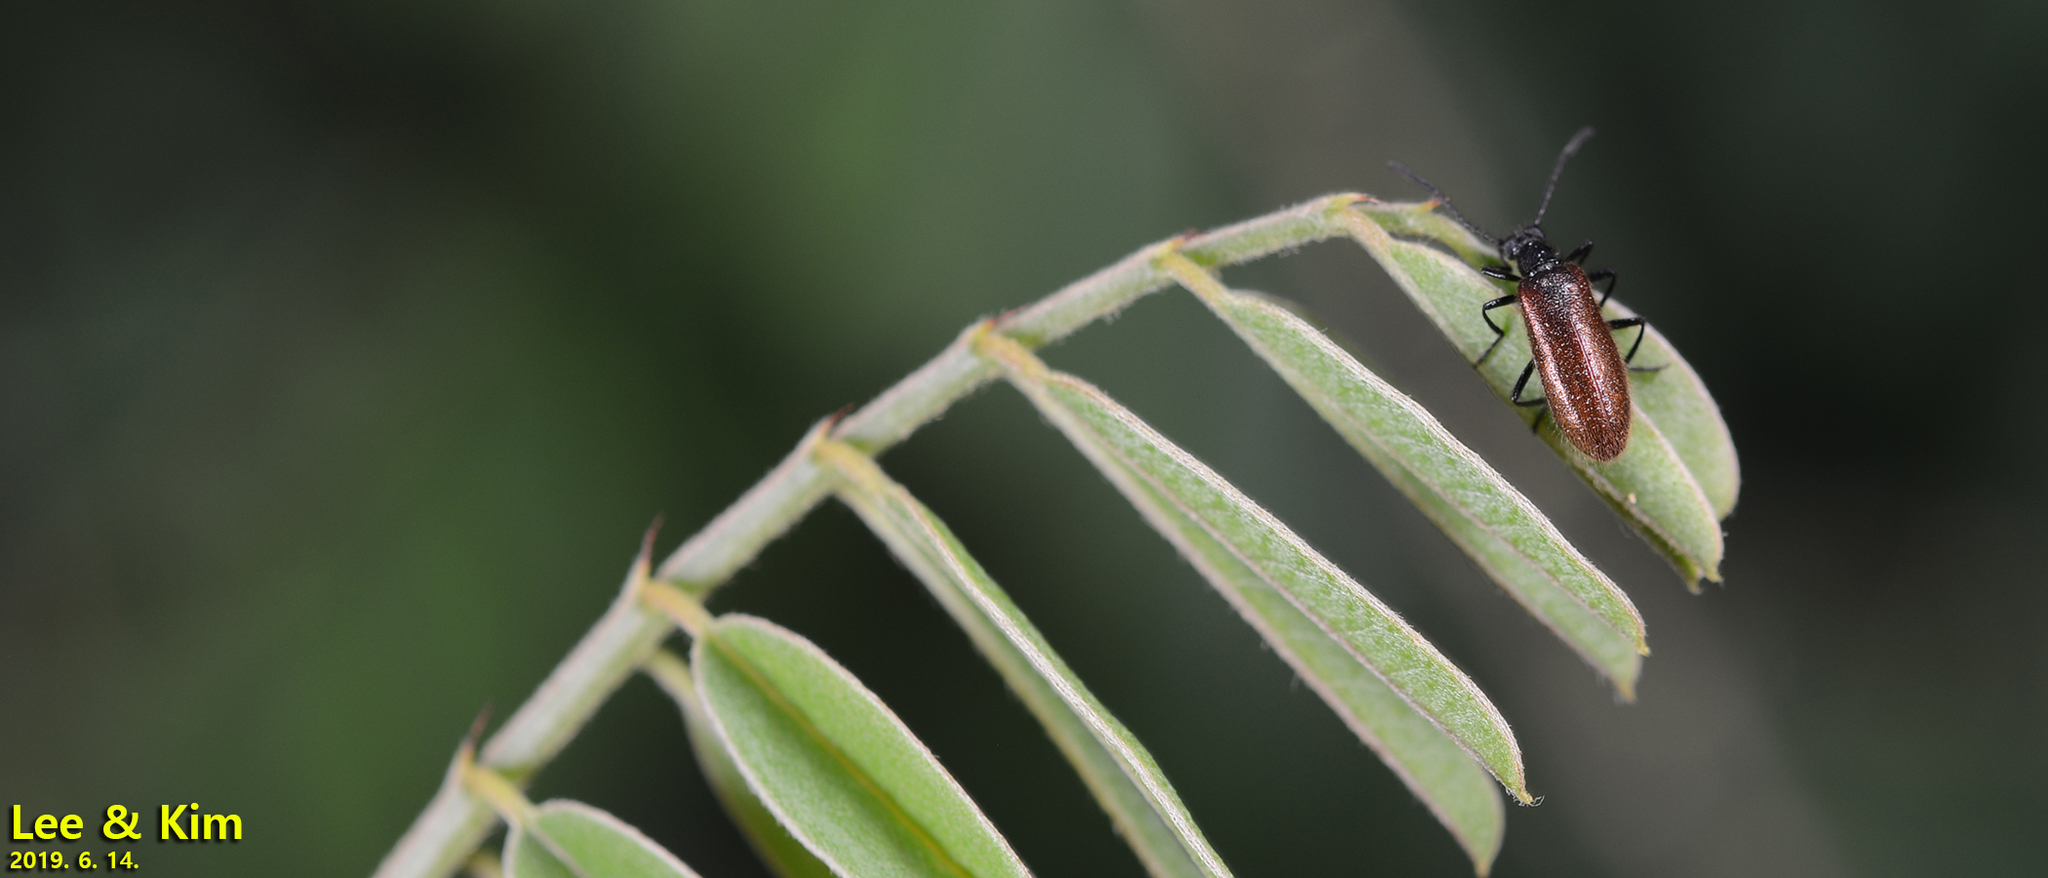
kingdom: Animalia
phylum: Arthropoda
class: Insecta
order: Coleoptera
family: Tenebrionidae
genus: Lagria
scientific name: Lagria
